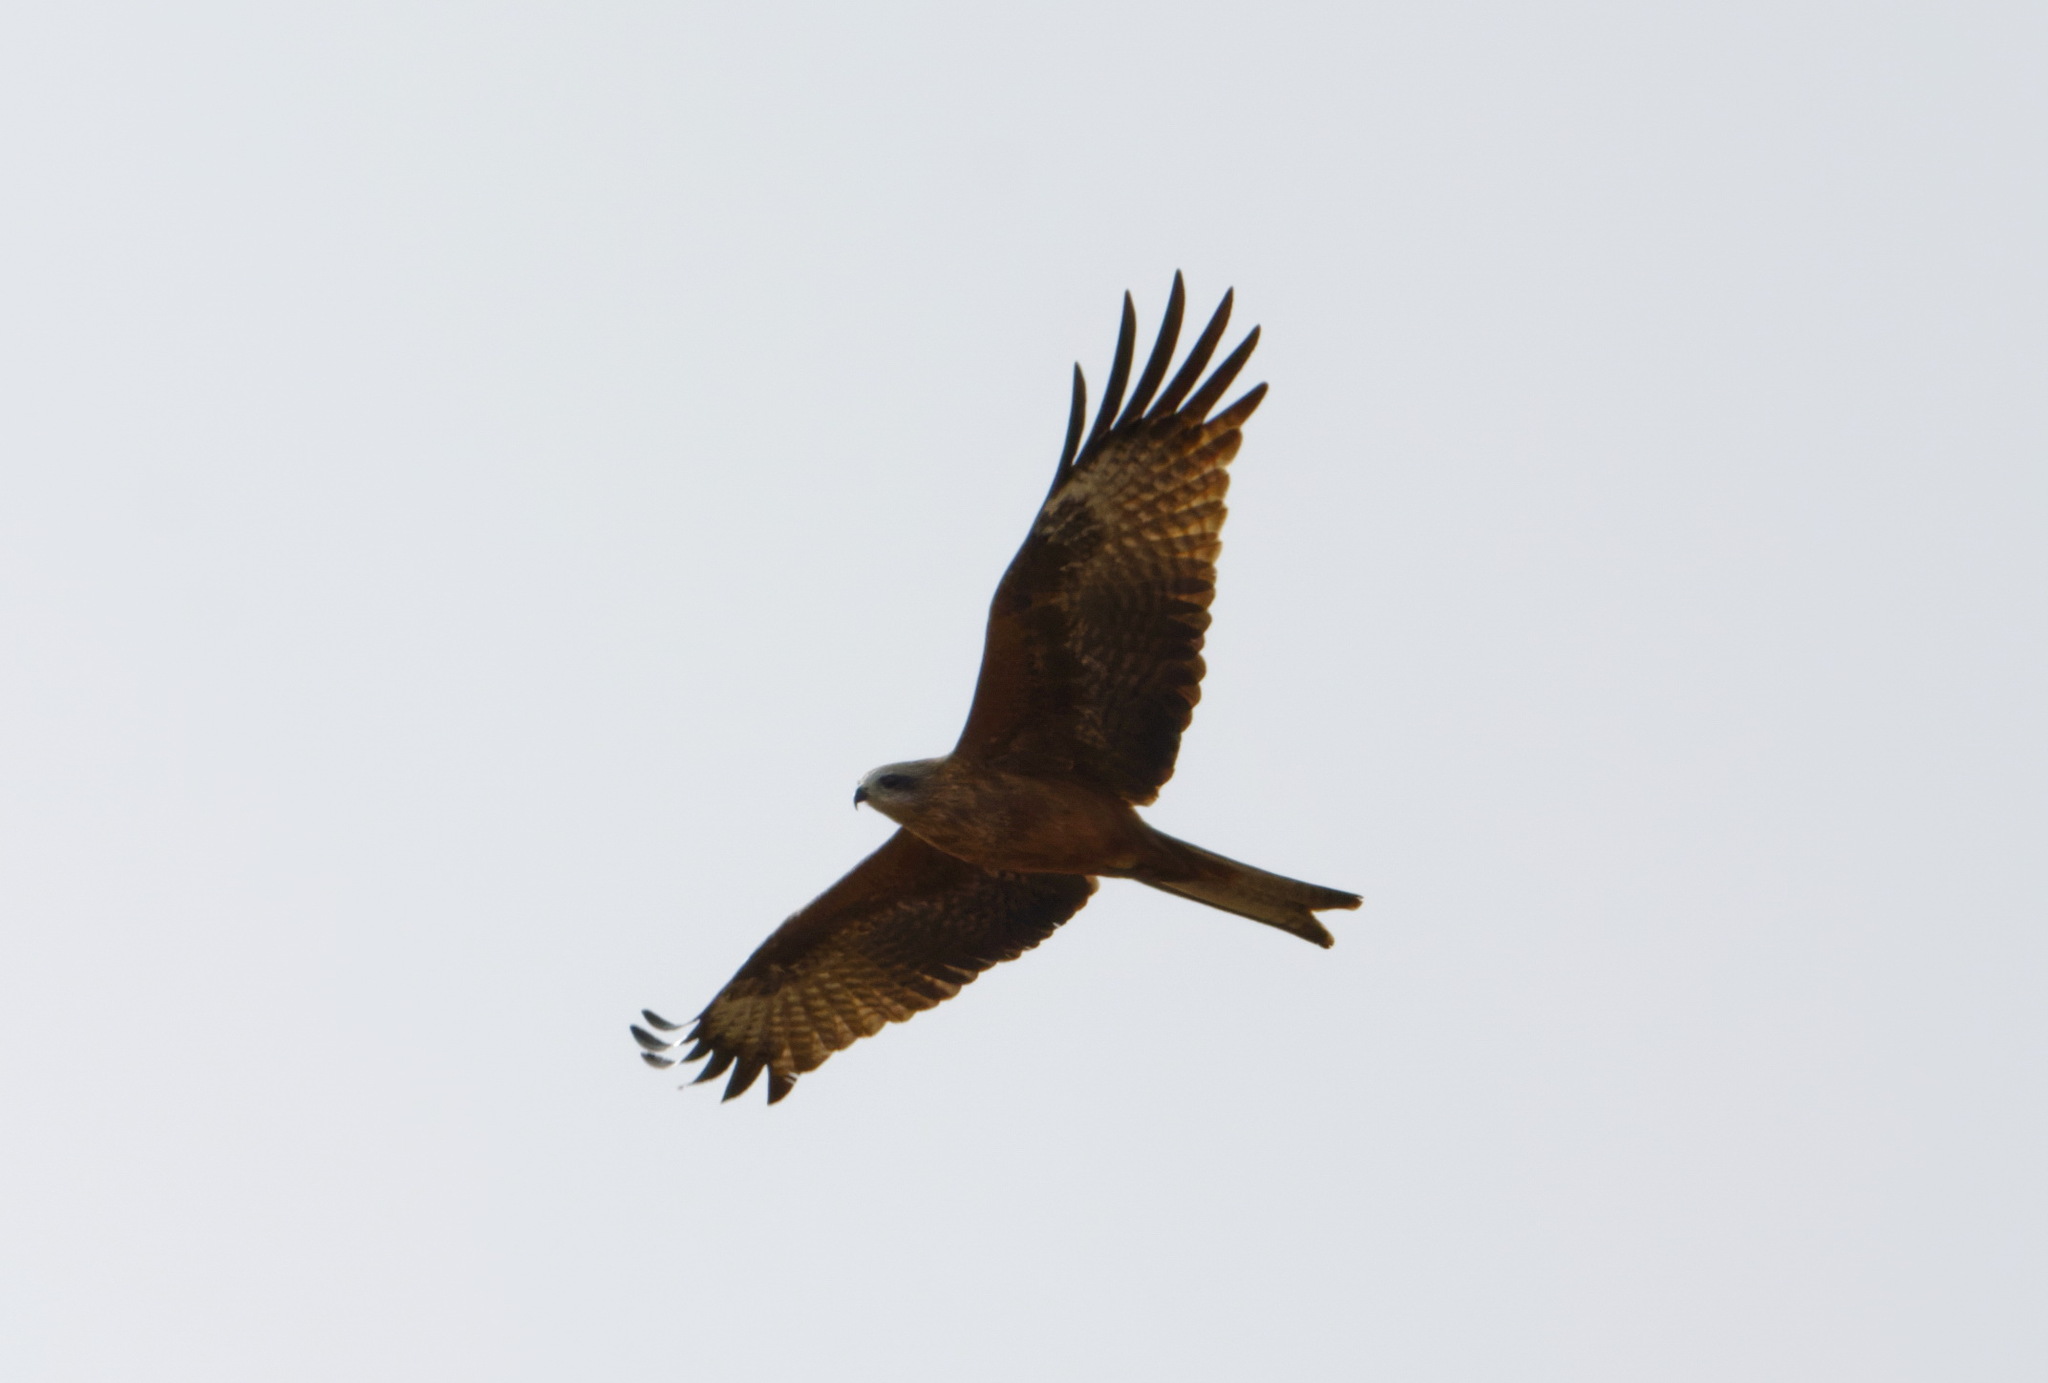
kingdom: Animalia
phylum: Chordata
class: Aves
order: Accipitriformes
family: Accipitridae
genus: Milvus
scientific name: Milvus migrans
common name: Black kite
